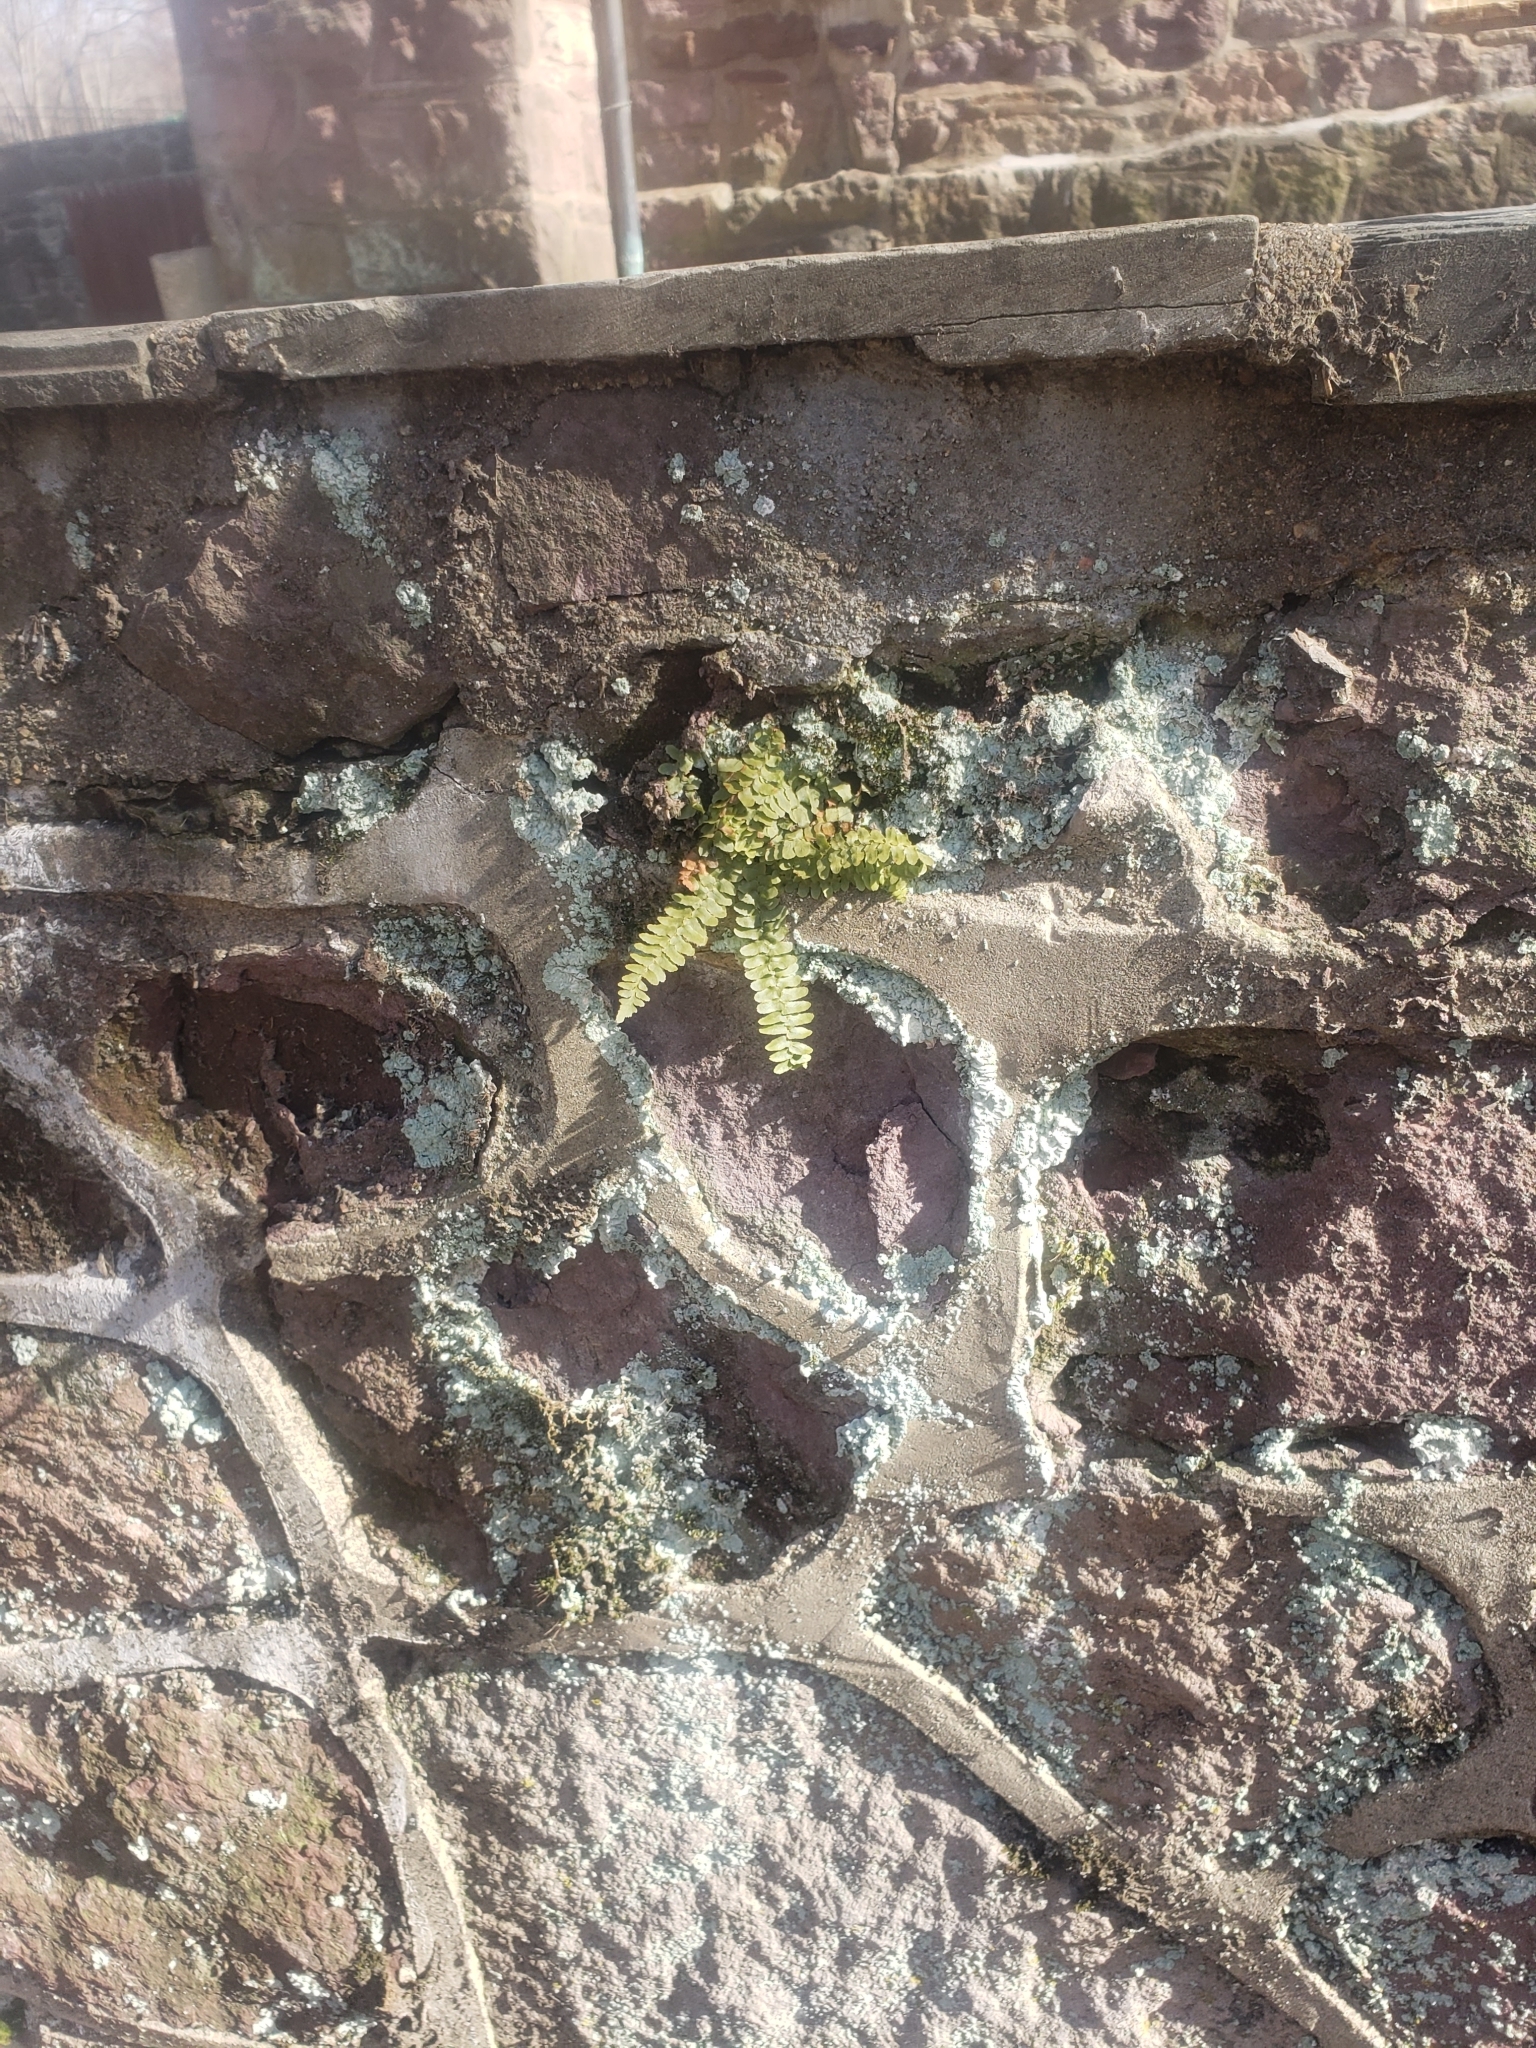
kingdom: Plantae
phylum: Tracheophyta
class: Polypodiopsida
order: Polypodiales
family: Aspleniaceae
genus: Asplenium
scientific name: Asplenium platyneuron
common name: Ebony spleenwort
